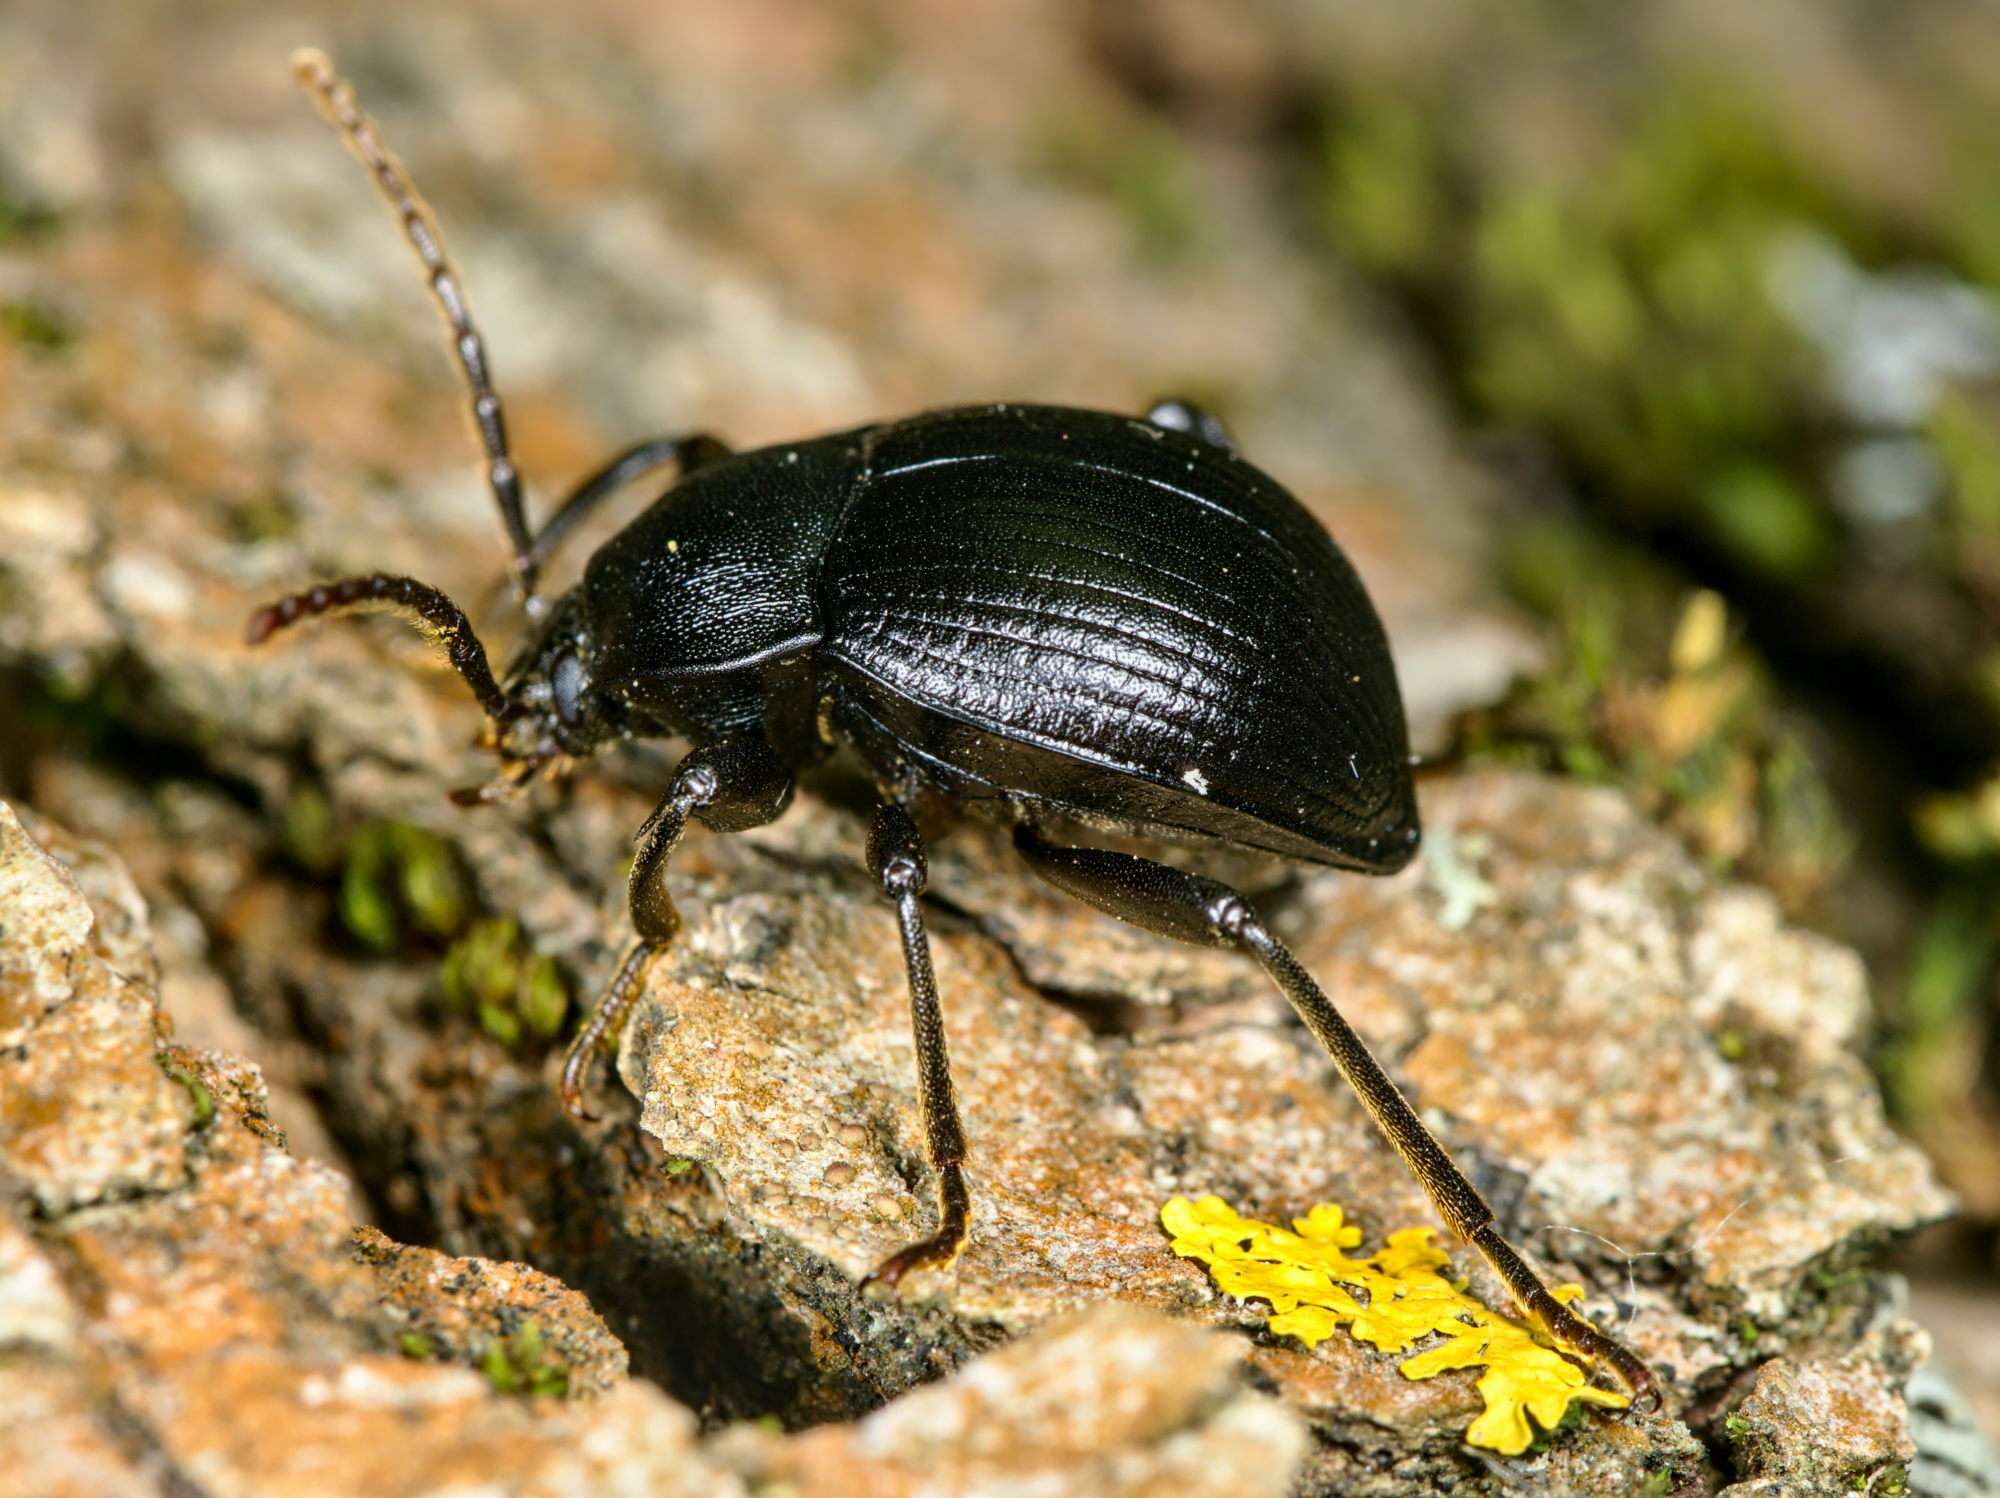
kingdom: Animalia
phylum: Arthropoda
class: Insecta
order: Coleoptera
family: Tenebrionidae
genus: Accanthopus
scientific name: Accanthopus velikensis
